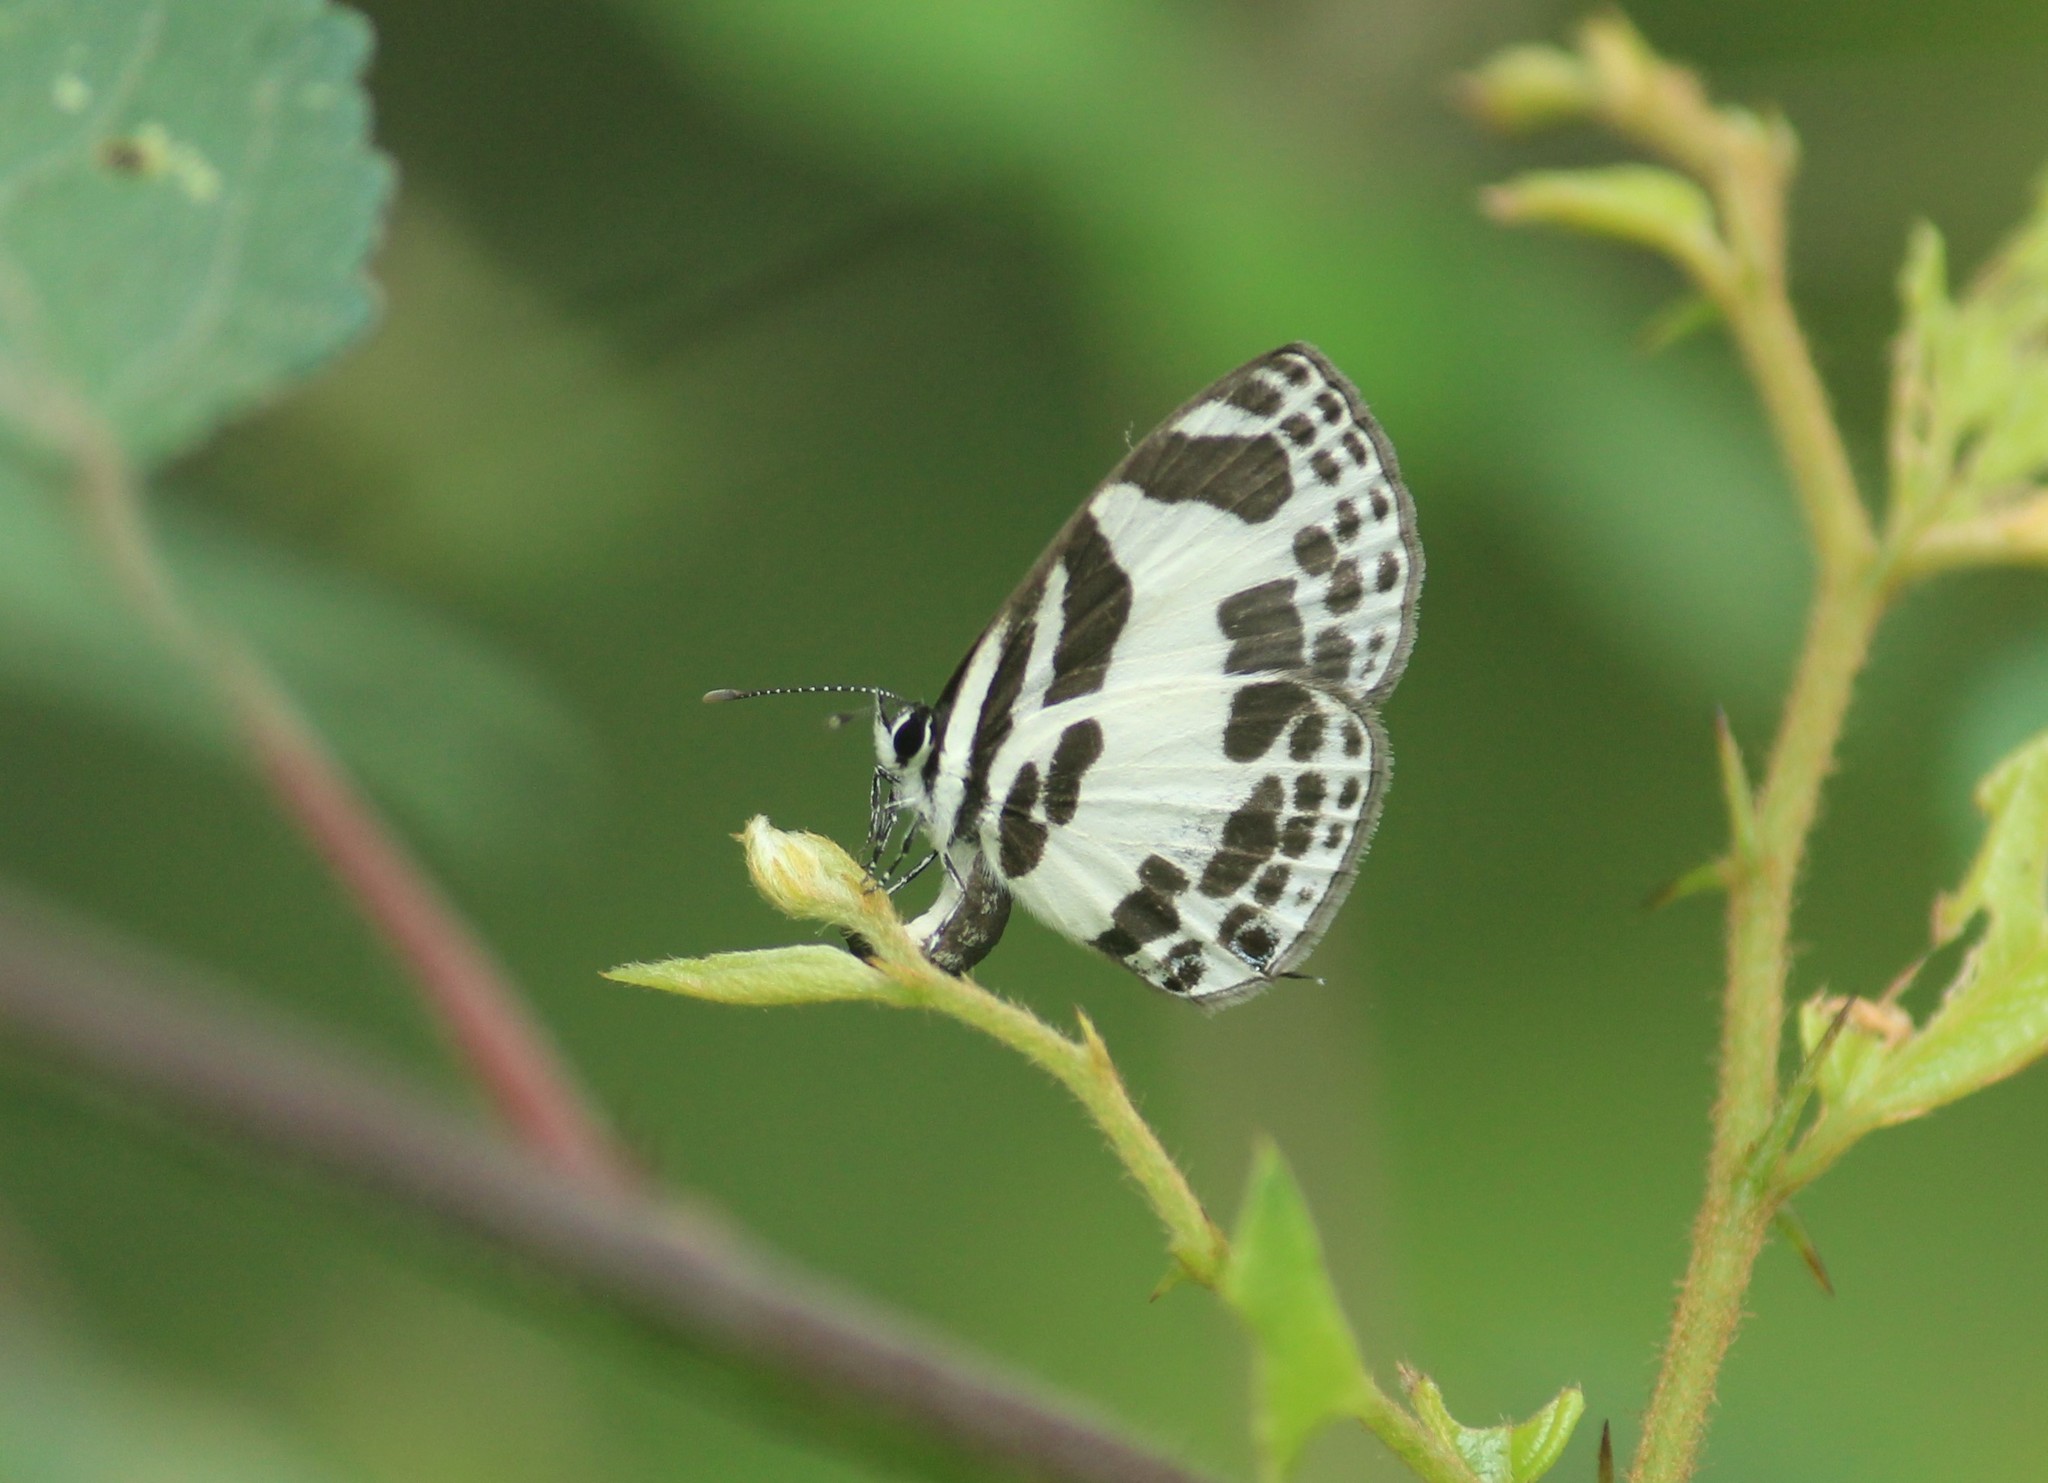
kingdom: Animalia
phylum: Arthropoda
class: Insecta
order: Lepidoptera
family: Lycaenidae
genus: Discolampa
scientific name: Discolampa ethion
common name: Banded blue pierrot
